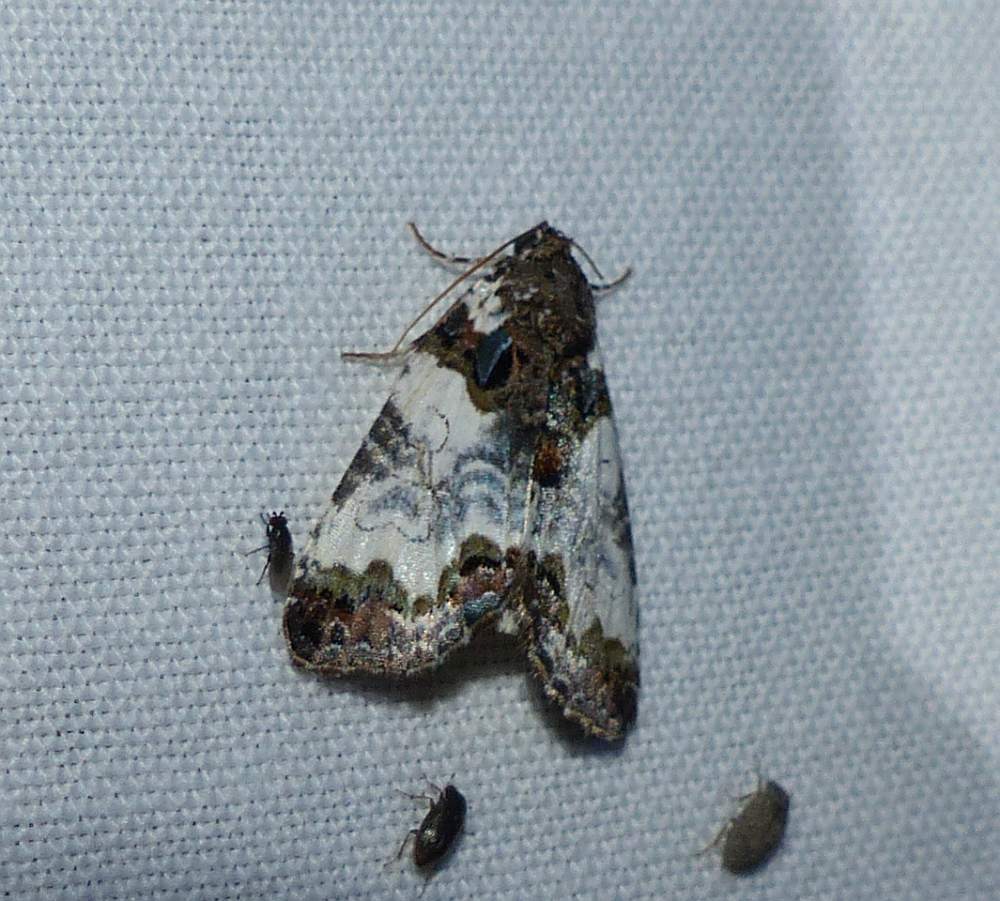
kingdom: Animalia
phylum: Arthropoda
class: Insecta
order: Lepidoptera
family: Noctuidae
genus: Cerma
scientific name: Cerma cerintha
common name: Tufted bird-dropping moth
